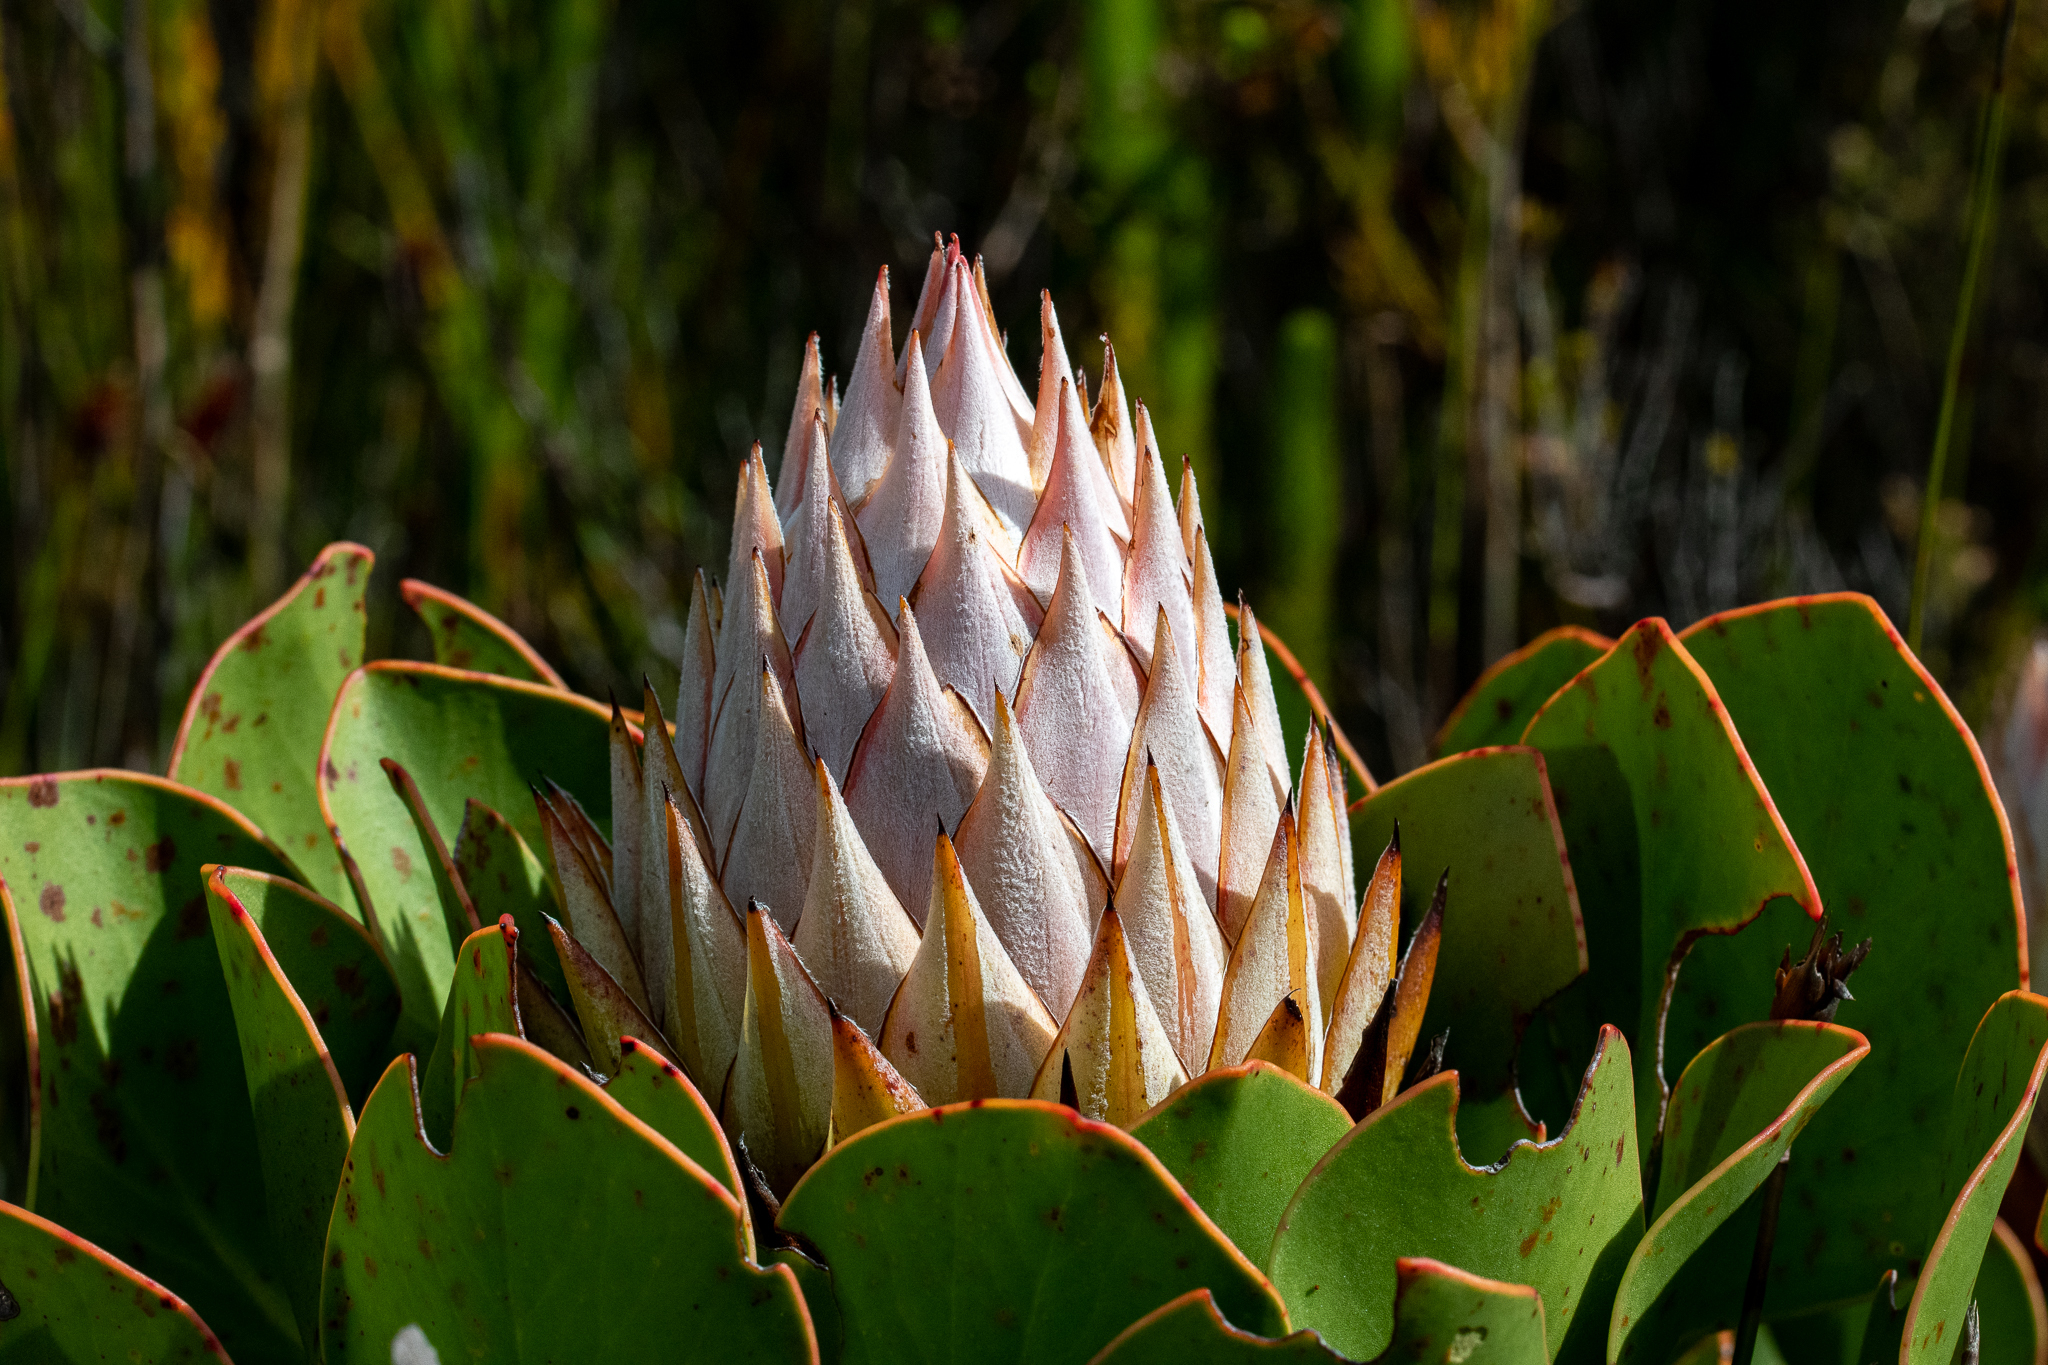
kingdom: Plantae
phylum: Tracheophyta
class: Magnoliopsida
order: Proteales
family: Proteaceae
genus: Protea
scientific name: Protea cynaroides
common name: King protea
